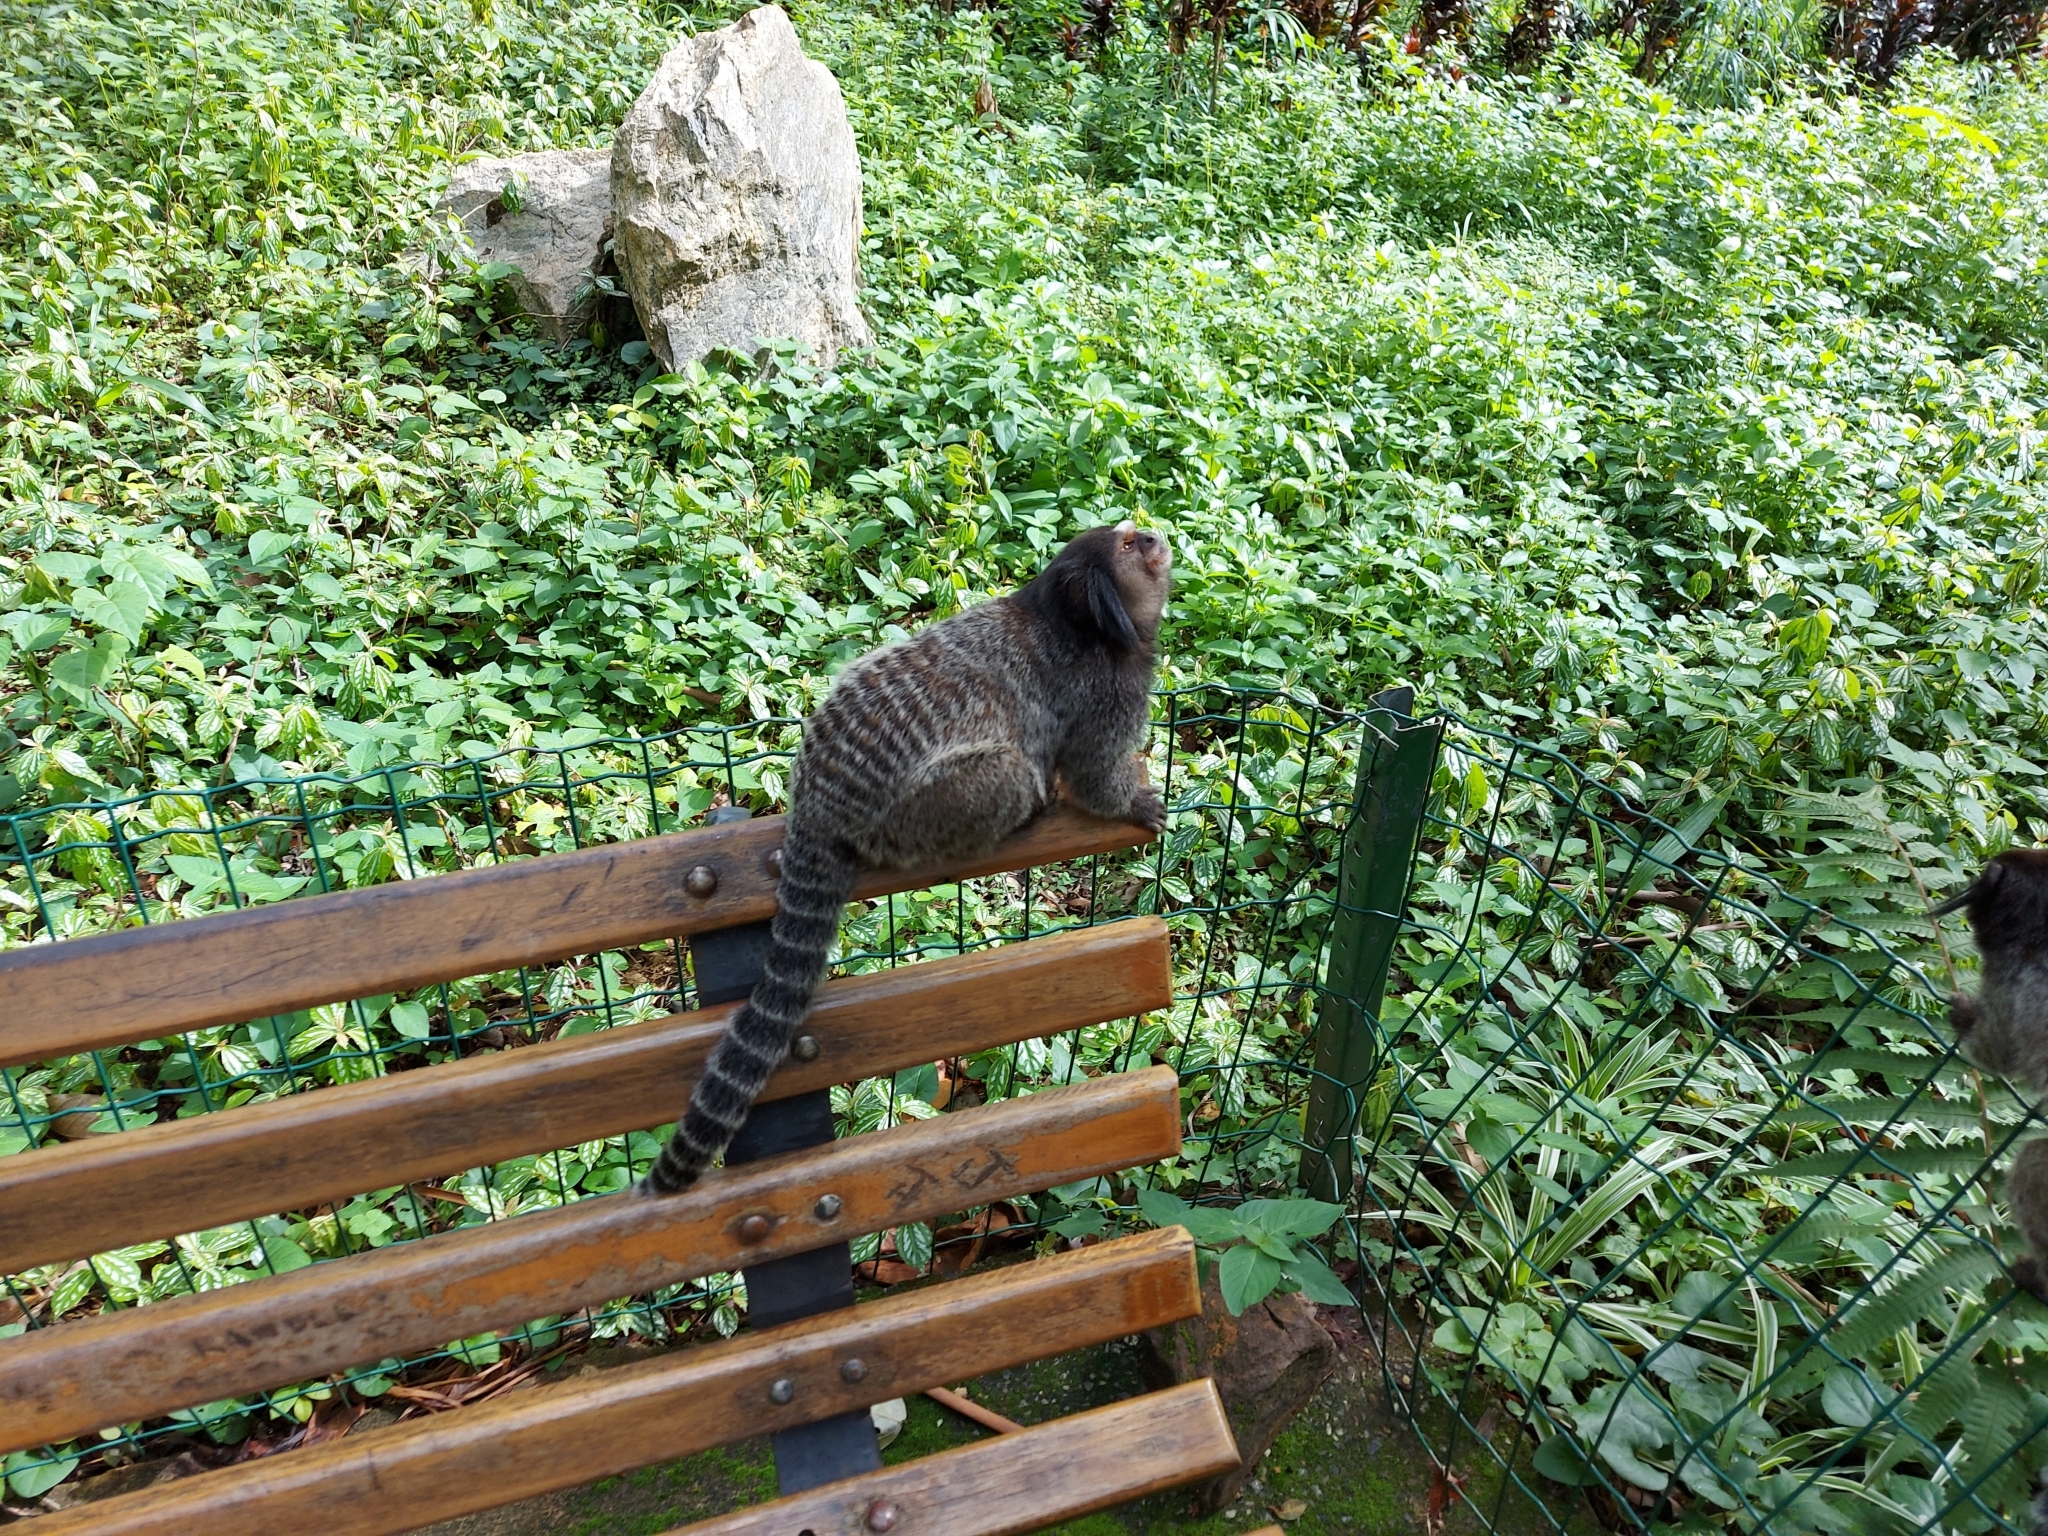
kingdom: Animalia
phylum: Chordata
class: Mammalia
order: Primates
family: Callitrichidae
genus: Callithrix
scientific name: Callithrix penicillata
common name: Black-tufted marmoset
